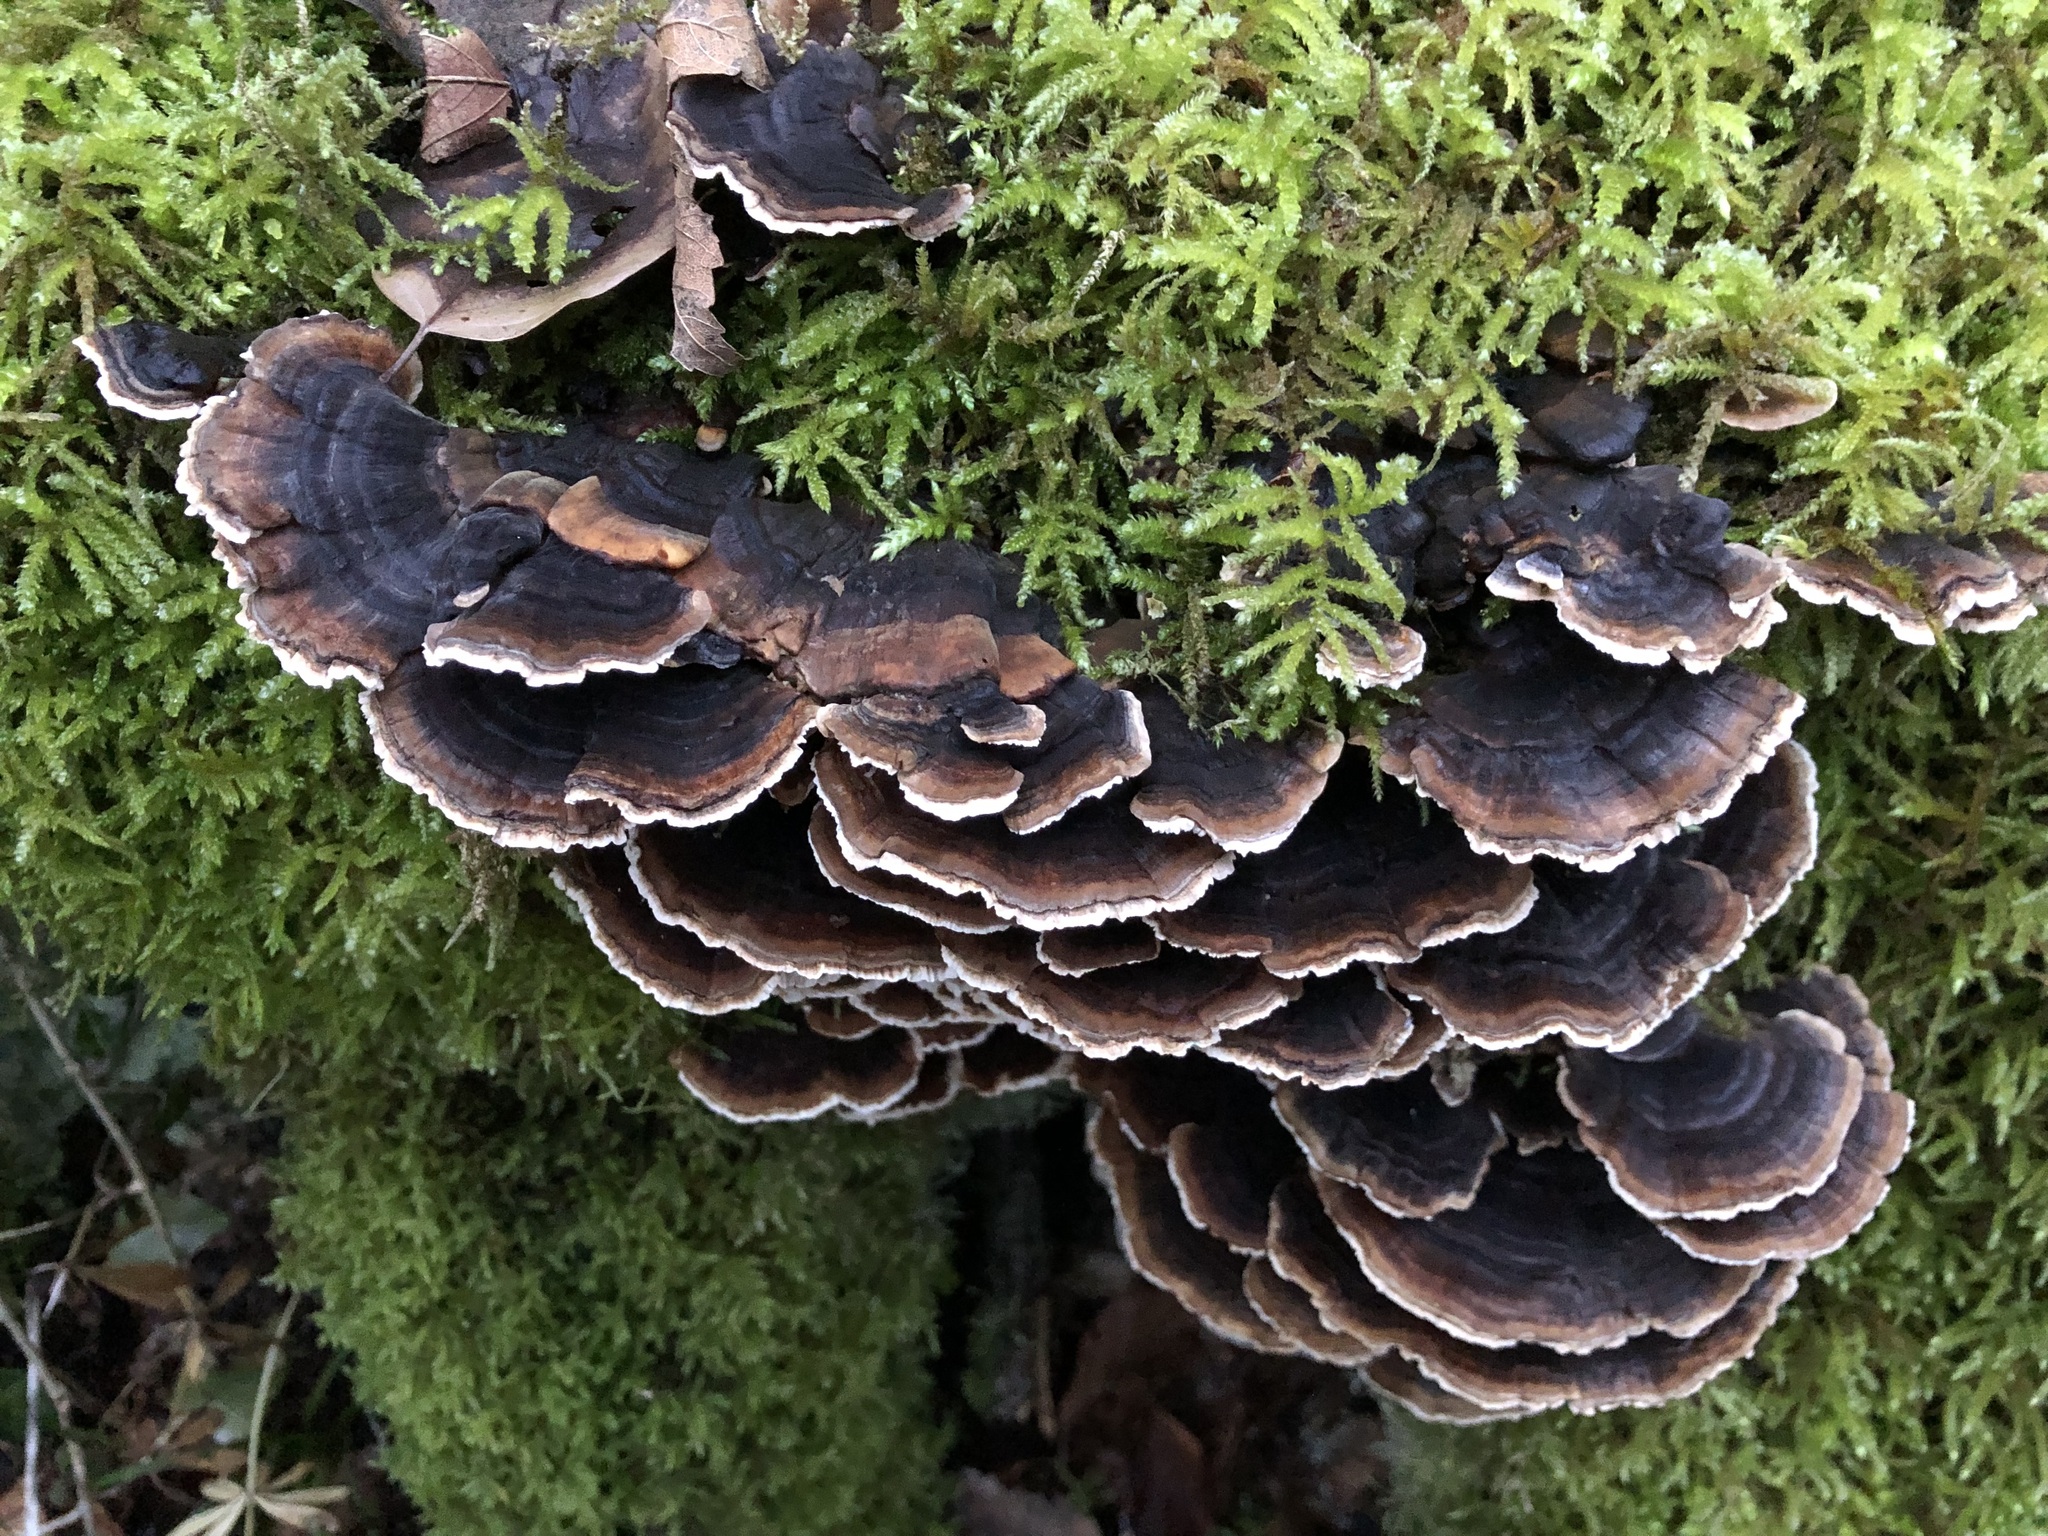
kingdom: Fungi
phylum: Basidiomycota
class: Agaricomycetes
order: Polyporales
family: Polyporaceae
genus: Trametes
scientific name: Trametes versicolor
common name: Turkeytail
